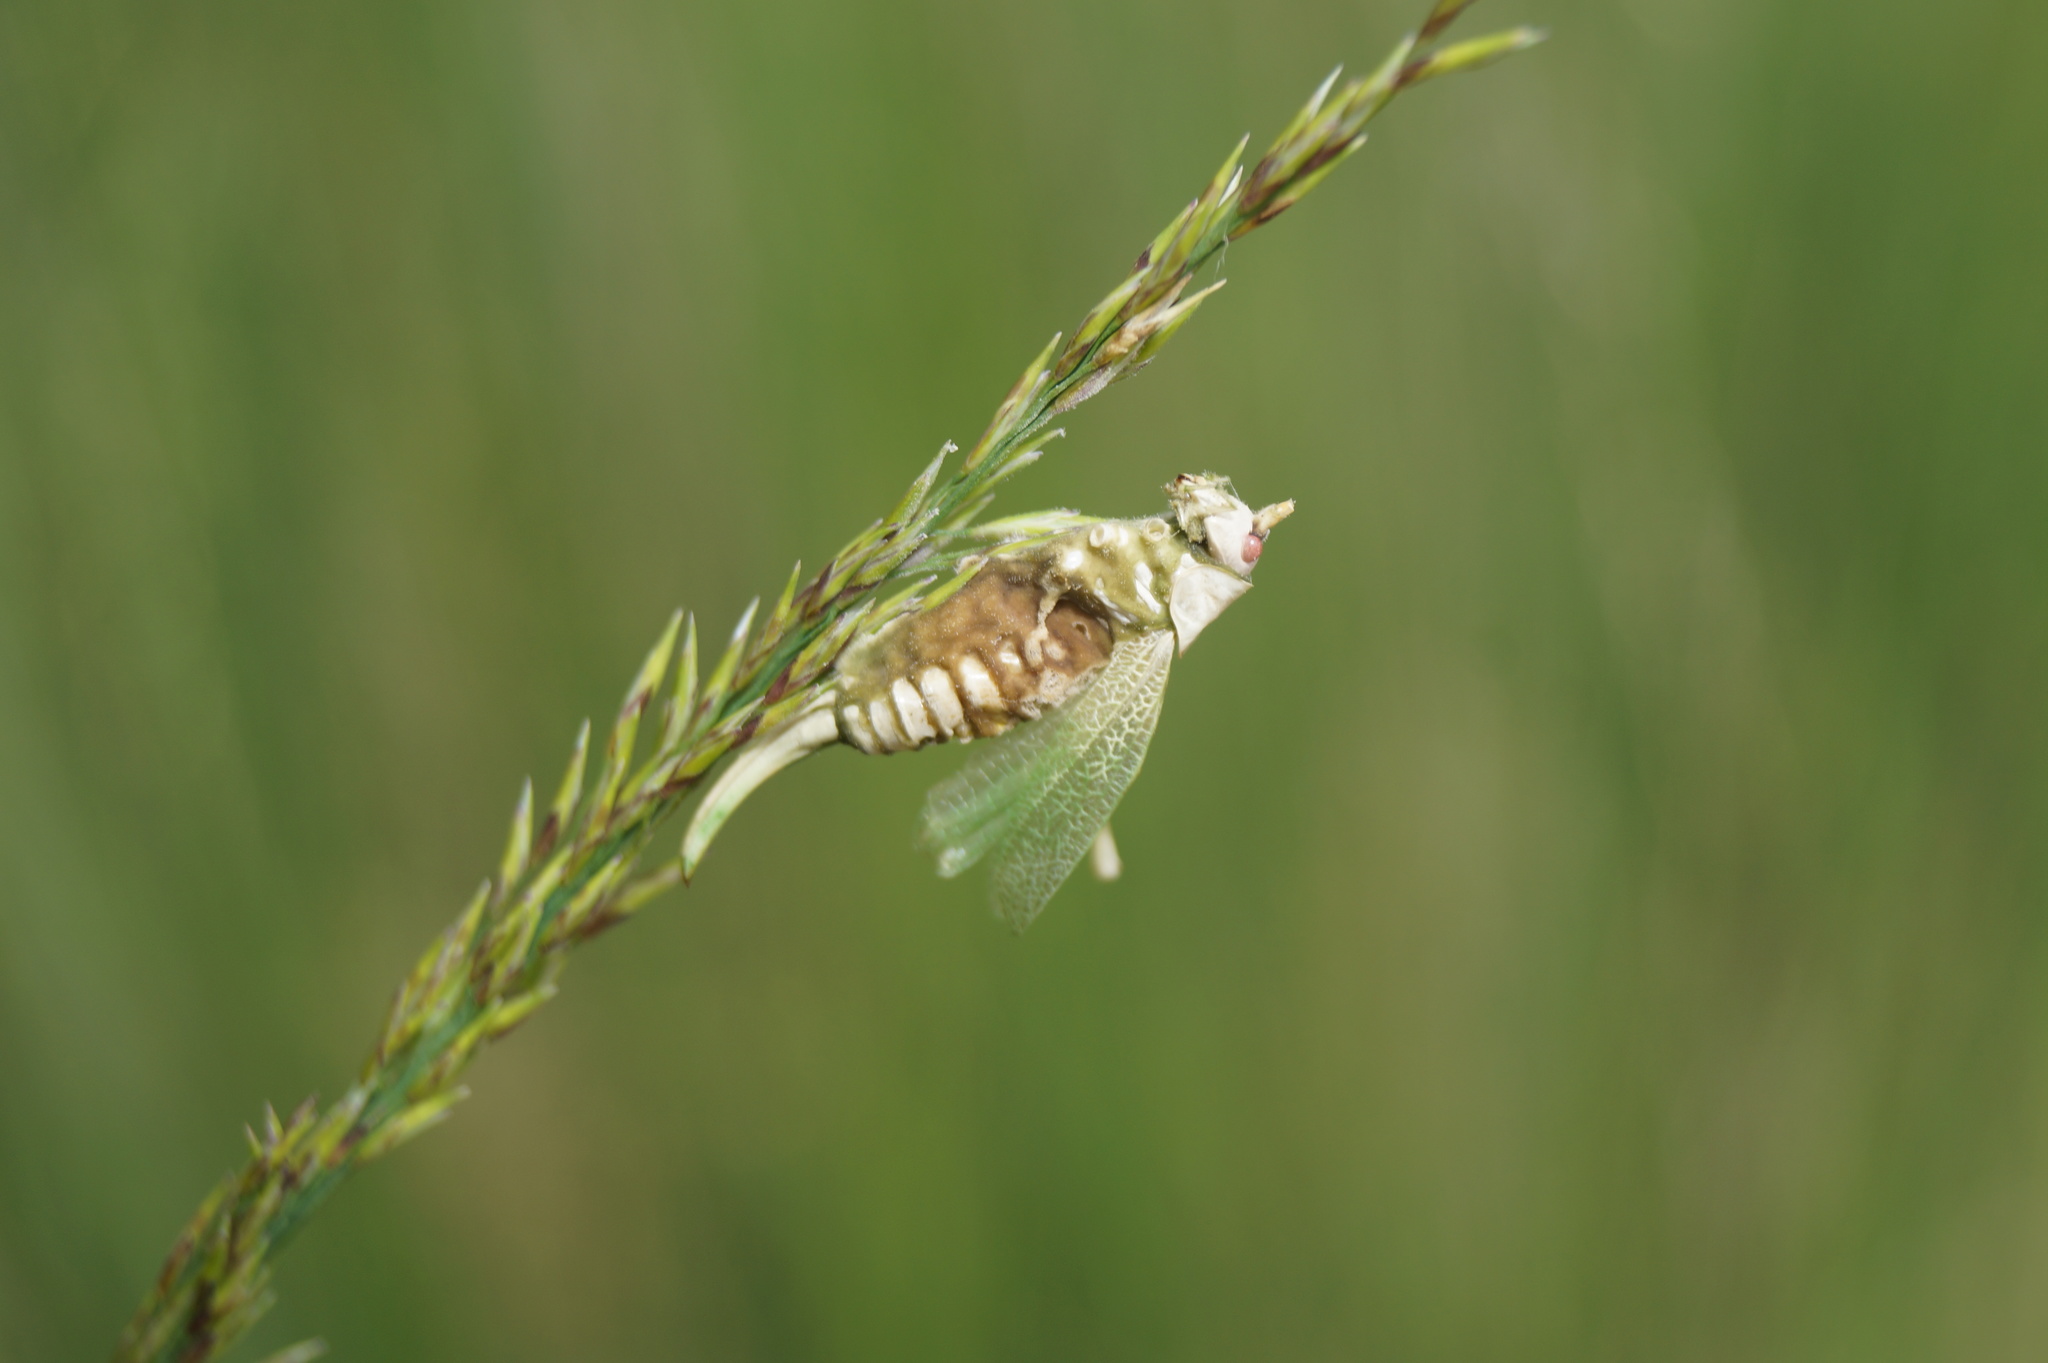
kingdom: Animalia
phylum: Arthropoda
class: Insecta
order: Orthoptera
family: Tettigoniidae
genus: Meconema
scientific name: Meconema thalassinum
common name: Oak bush-cricket
